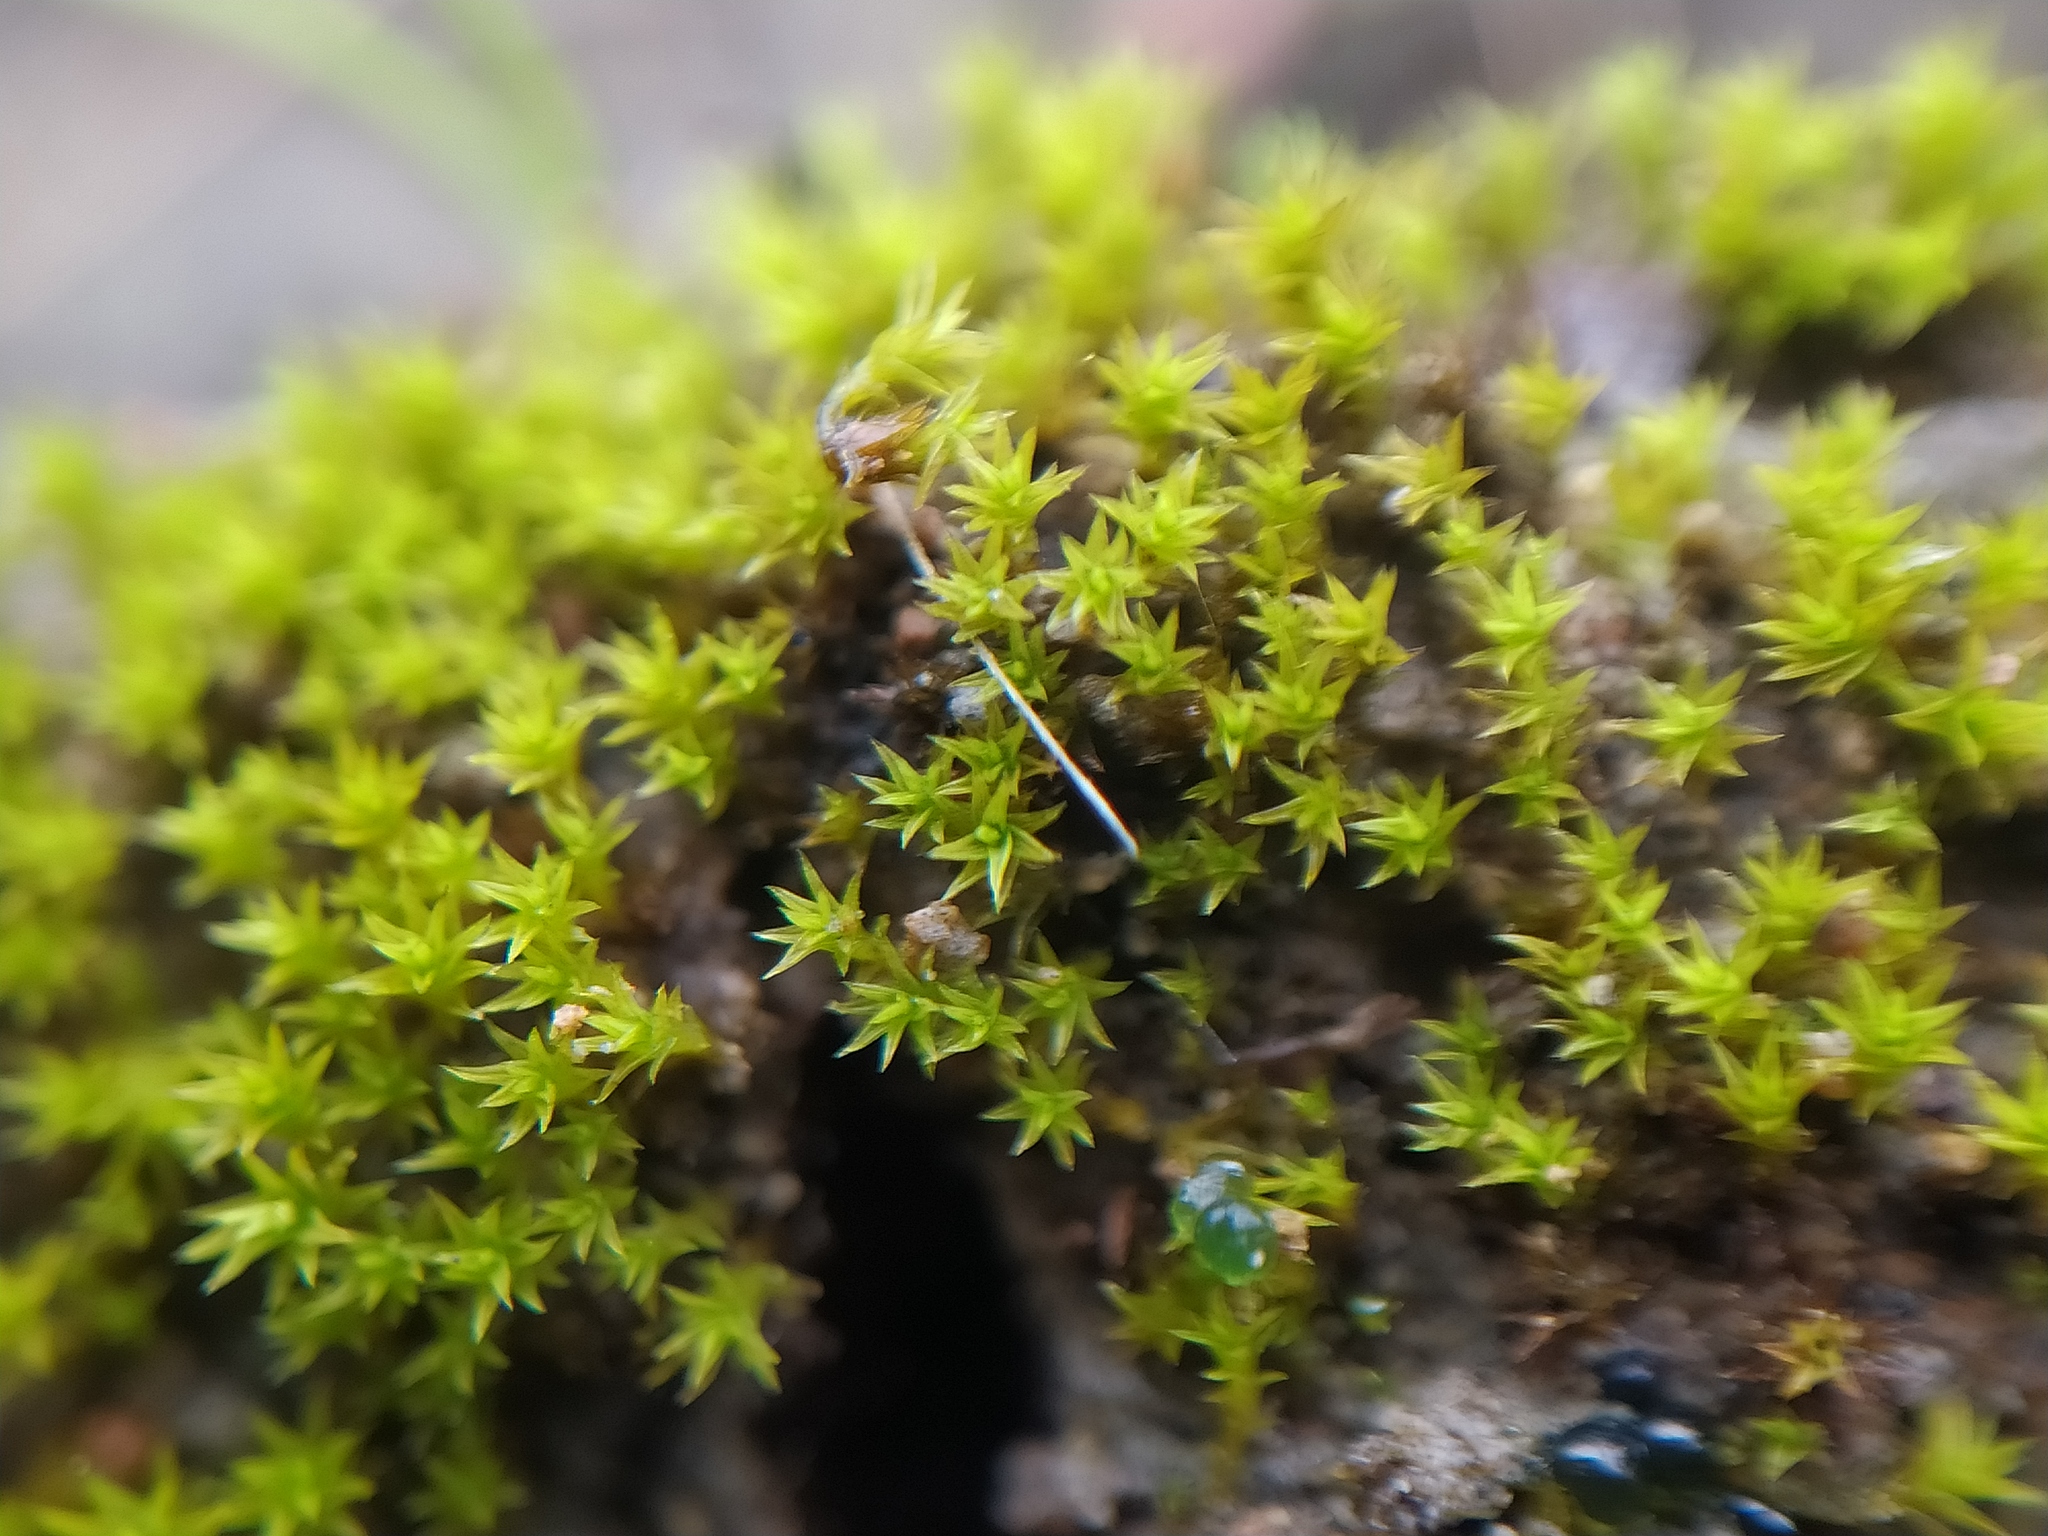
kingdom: Plantae
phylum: Bryophyta
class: Bryopsida
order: Pottiales
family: Pottiaceae
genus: Pseudocrossidium
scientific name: Pseudocrossidium hornschuchianum
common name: Hornschuch's beard-moss
